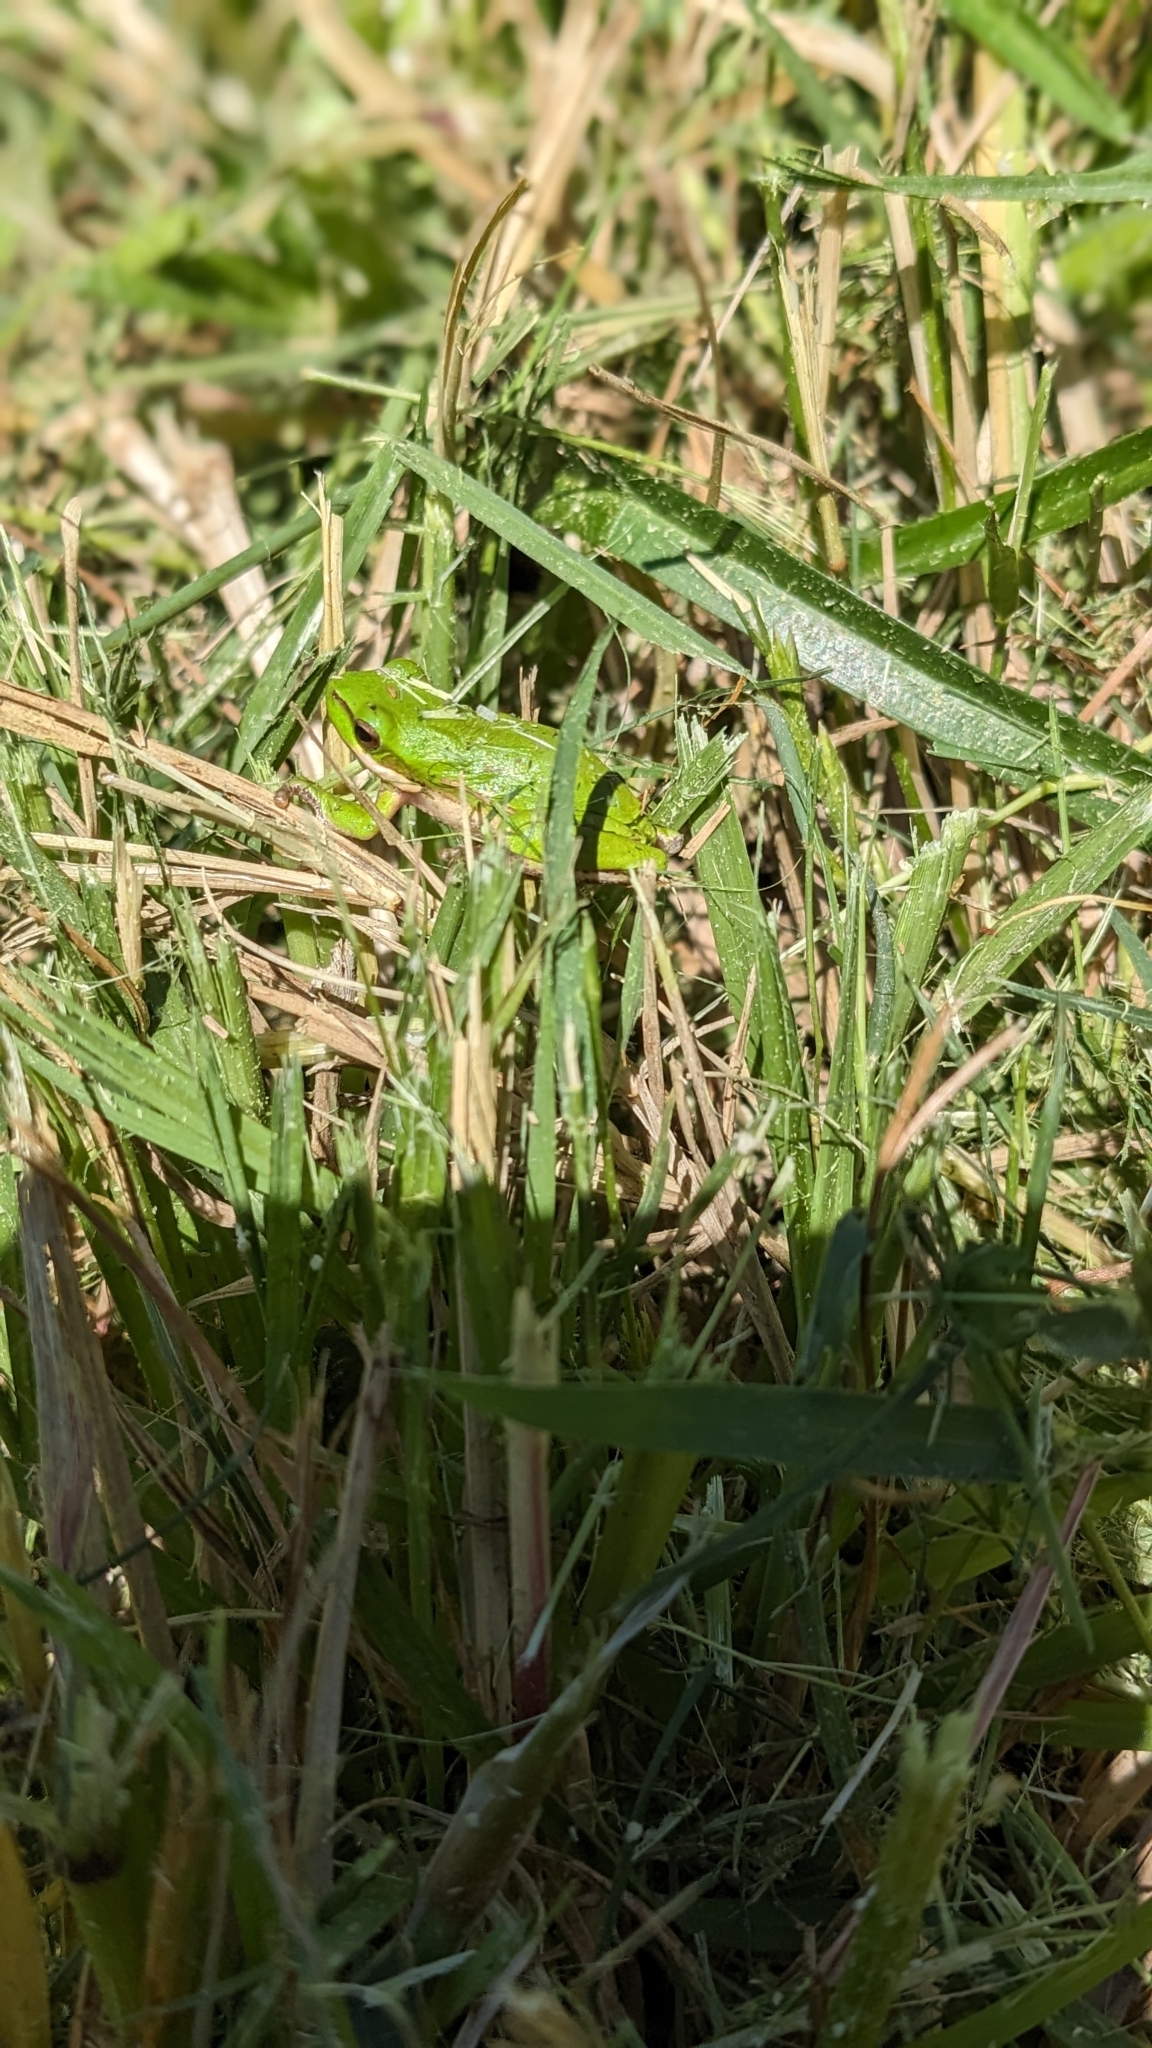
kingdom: Animalia
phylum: Chordata
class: Amphibia
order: Anura
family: Pelodryadidae
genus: Litoria
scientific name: Litoria fallax
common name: Eastern dwarf treefrog
